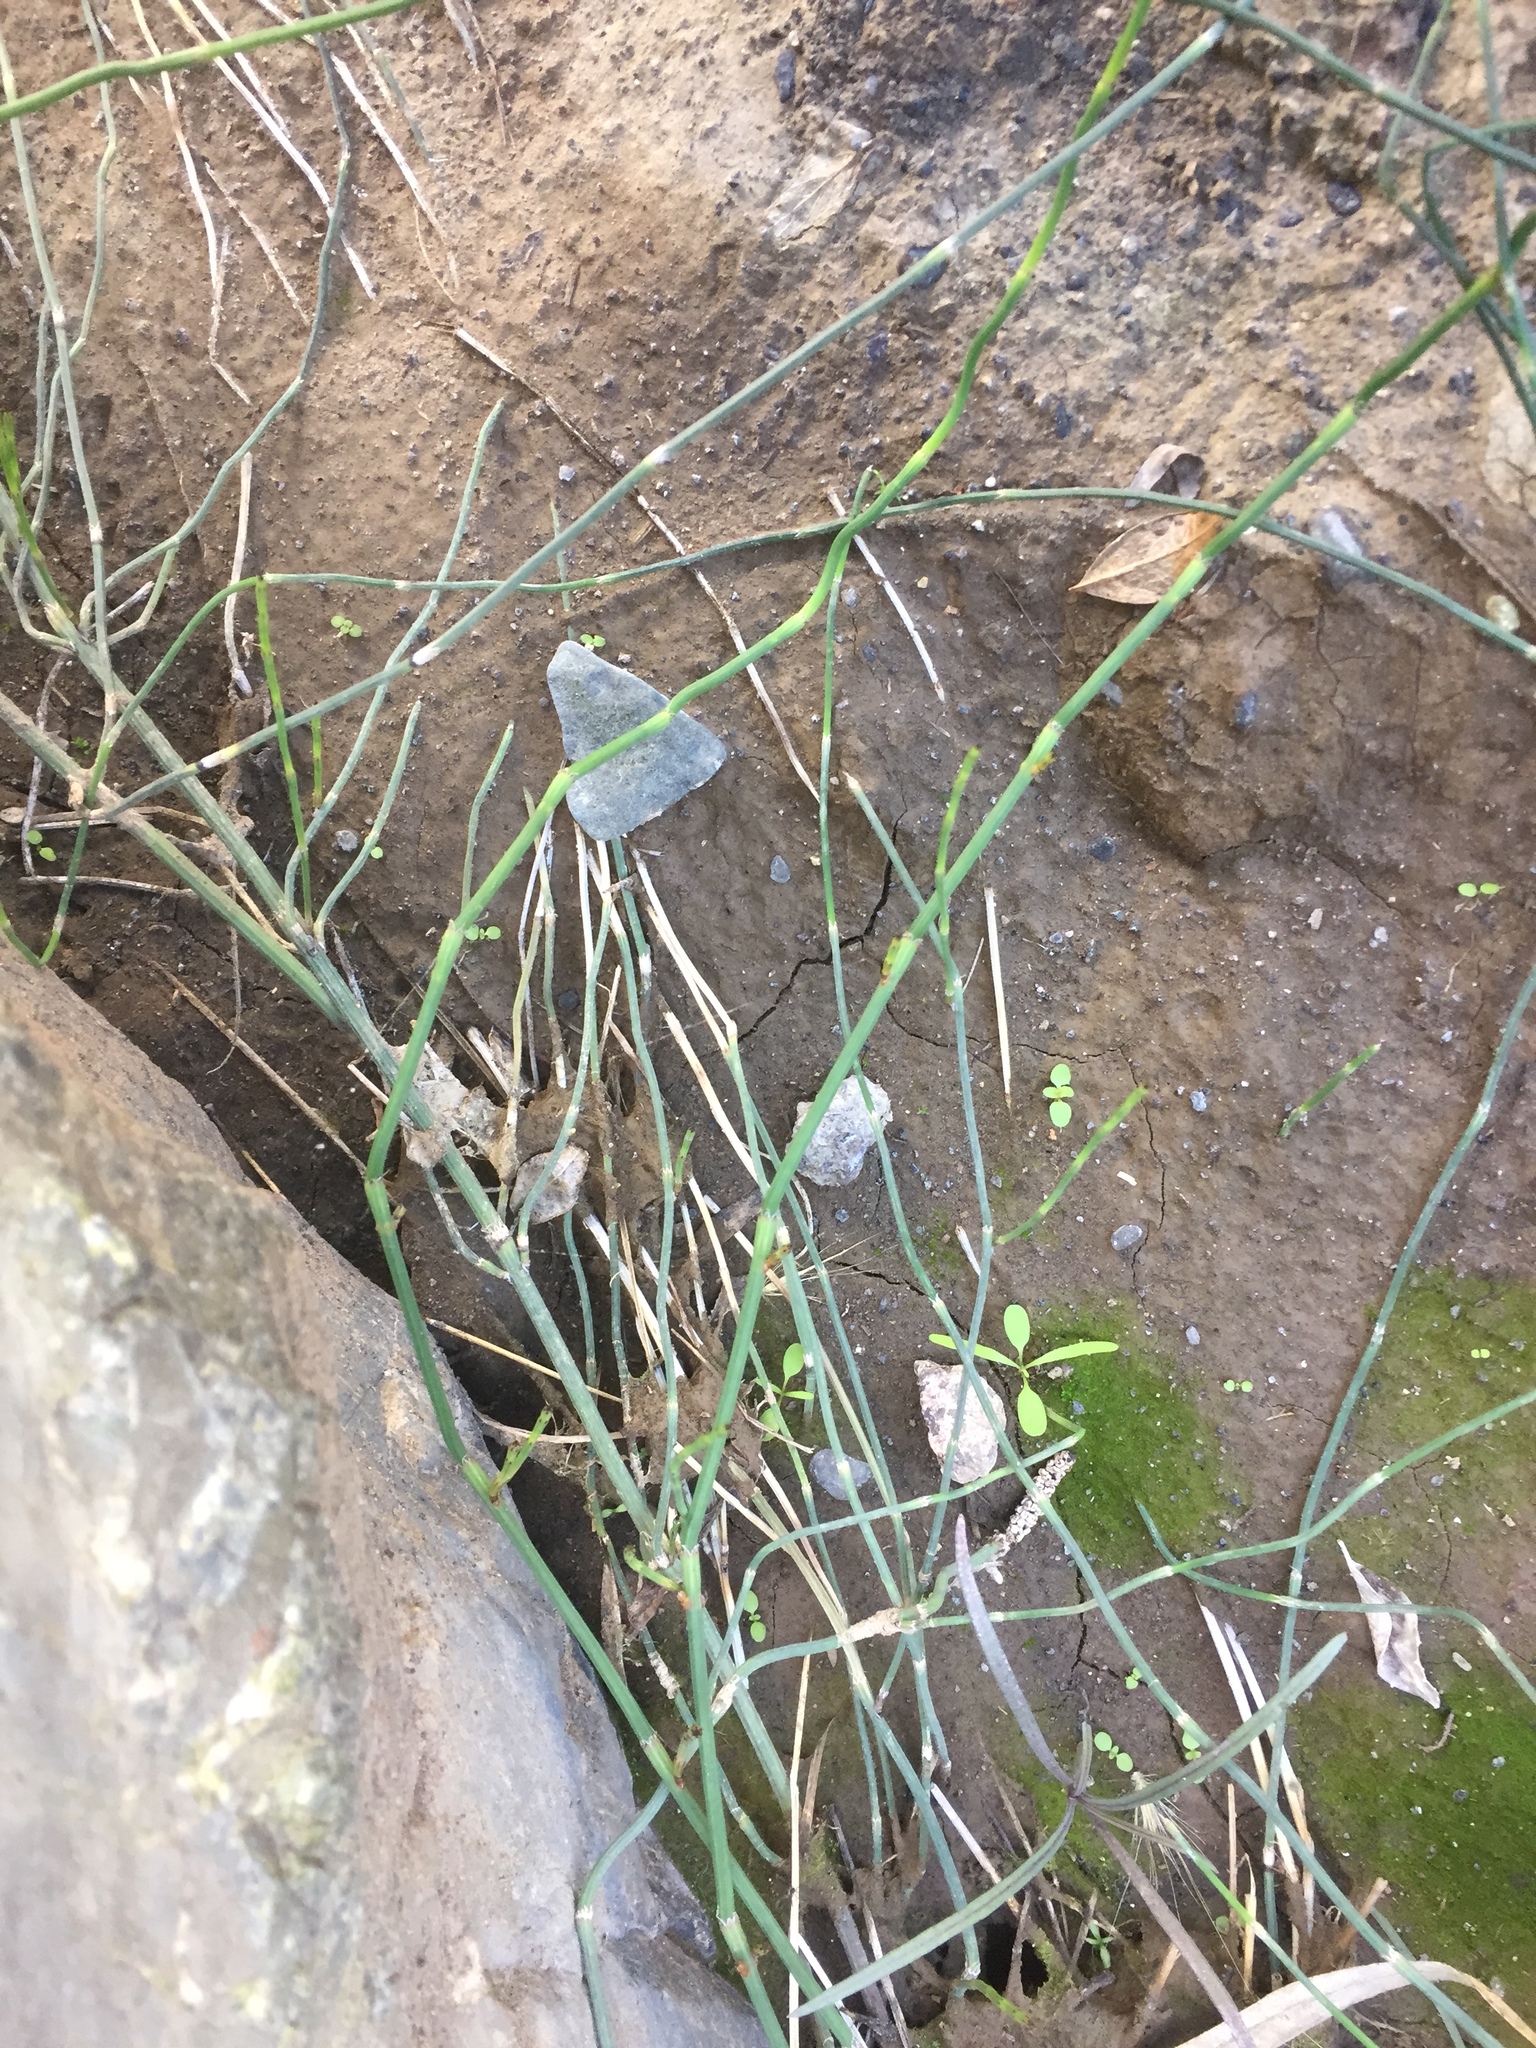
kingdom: Plantae
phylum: Tracheophyta
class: Polypodiopsida
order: Equisetales
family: Equisetaceae
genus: Equisetum
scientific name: Equisetum ramosissimum
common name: Branched horsetail
